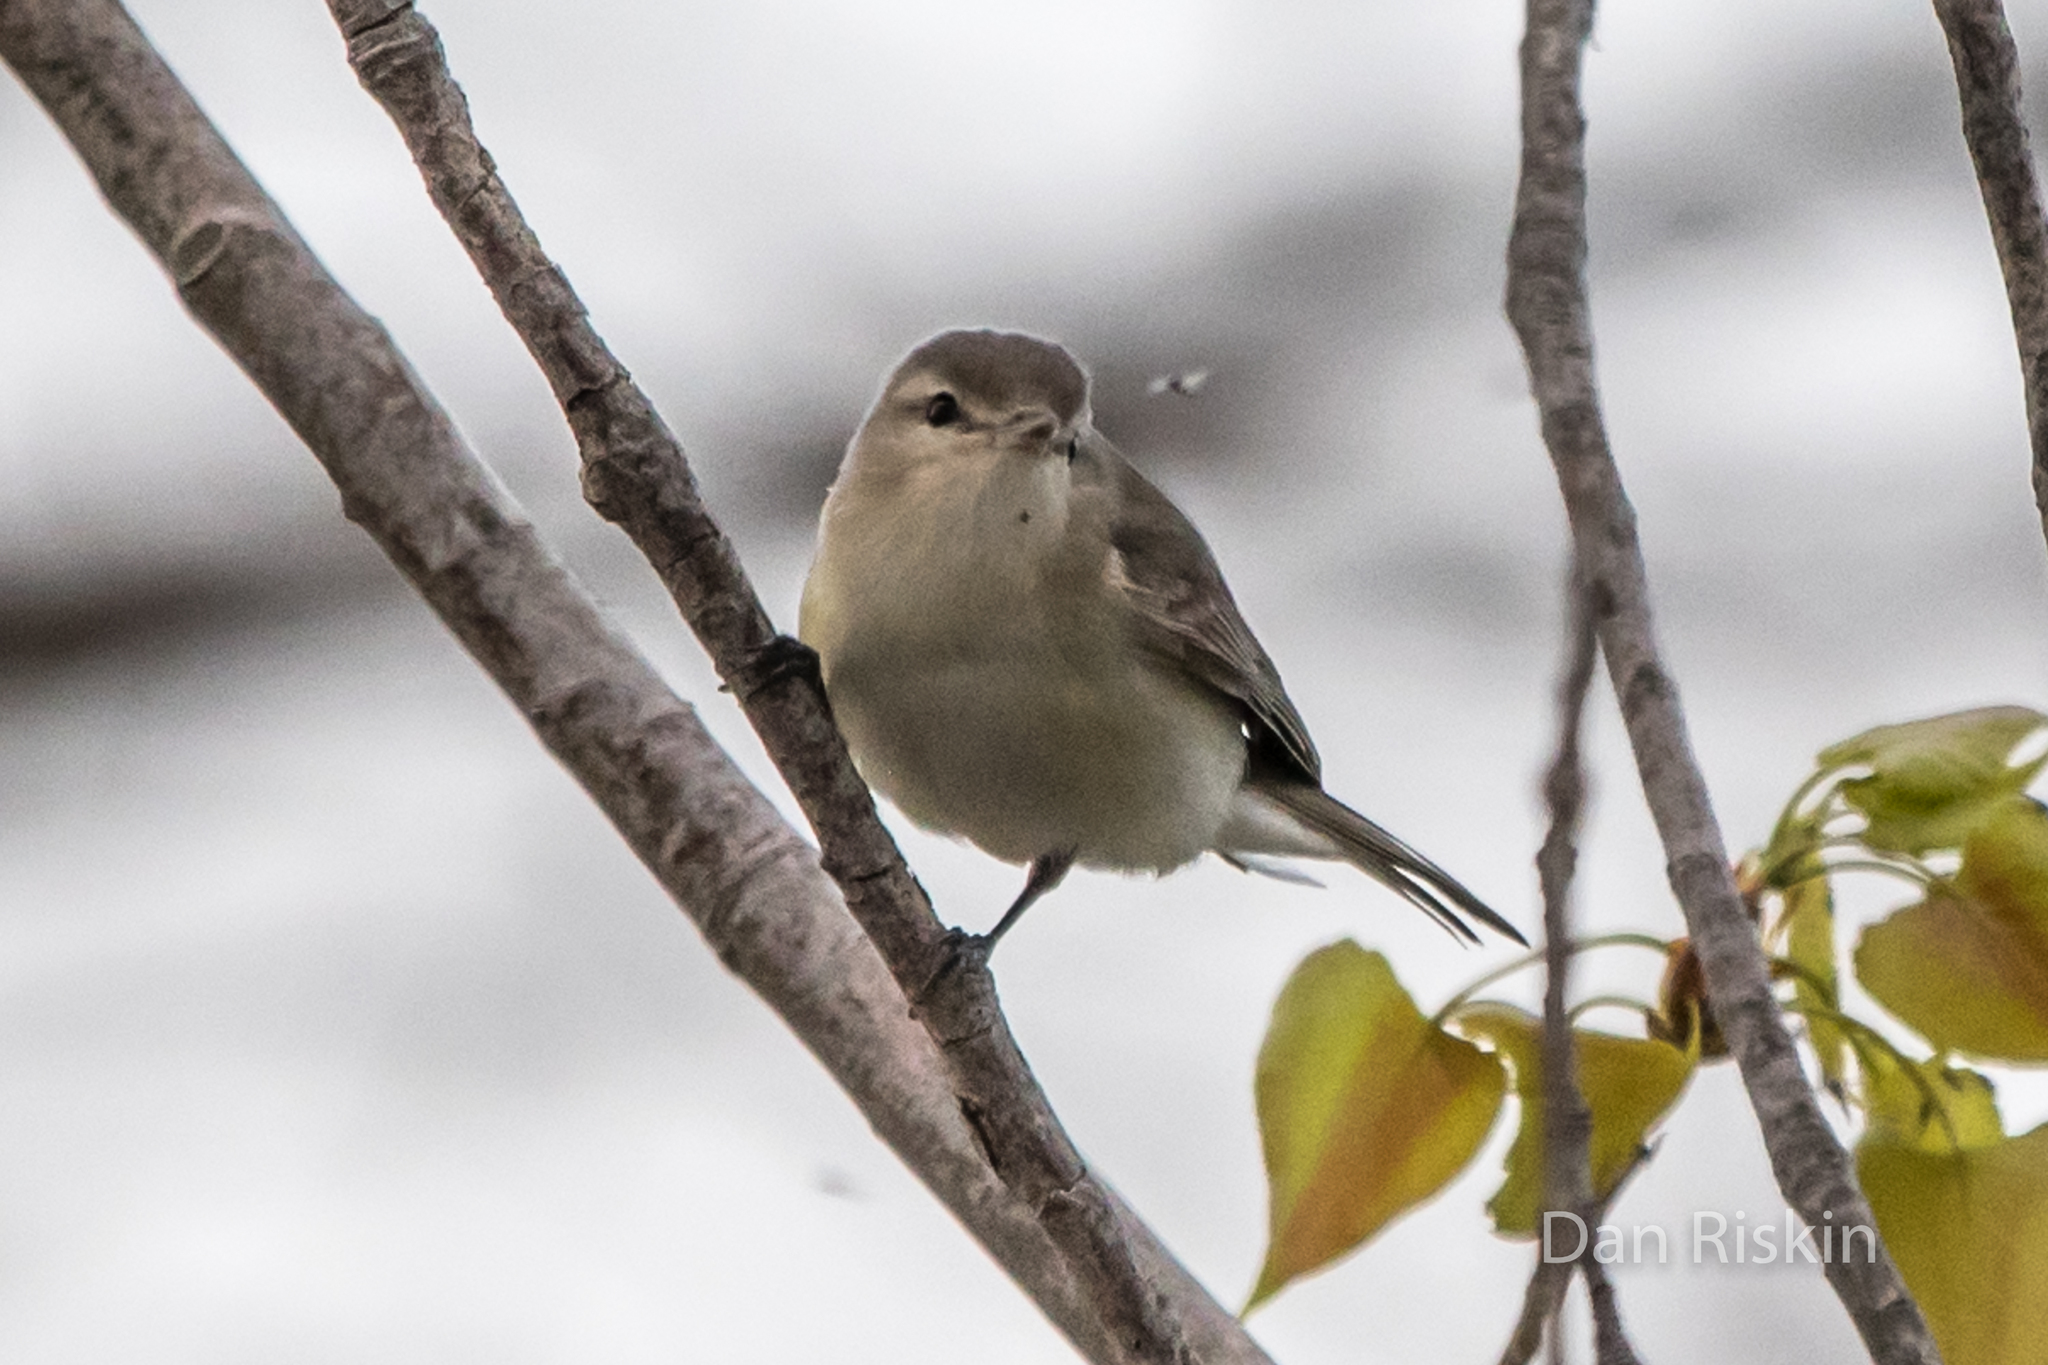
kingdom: Animalia
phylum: Chordata
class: Aves
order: Passeriformes
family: Vireonidae
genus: Vireo
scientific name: Vireo gilvus
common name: Warbling vireo
